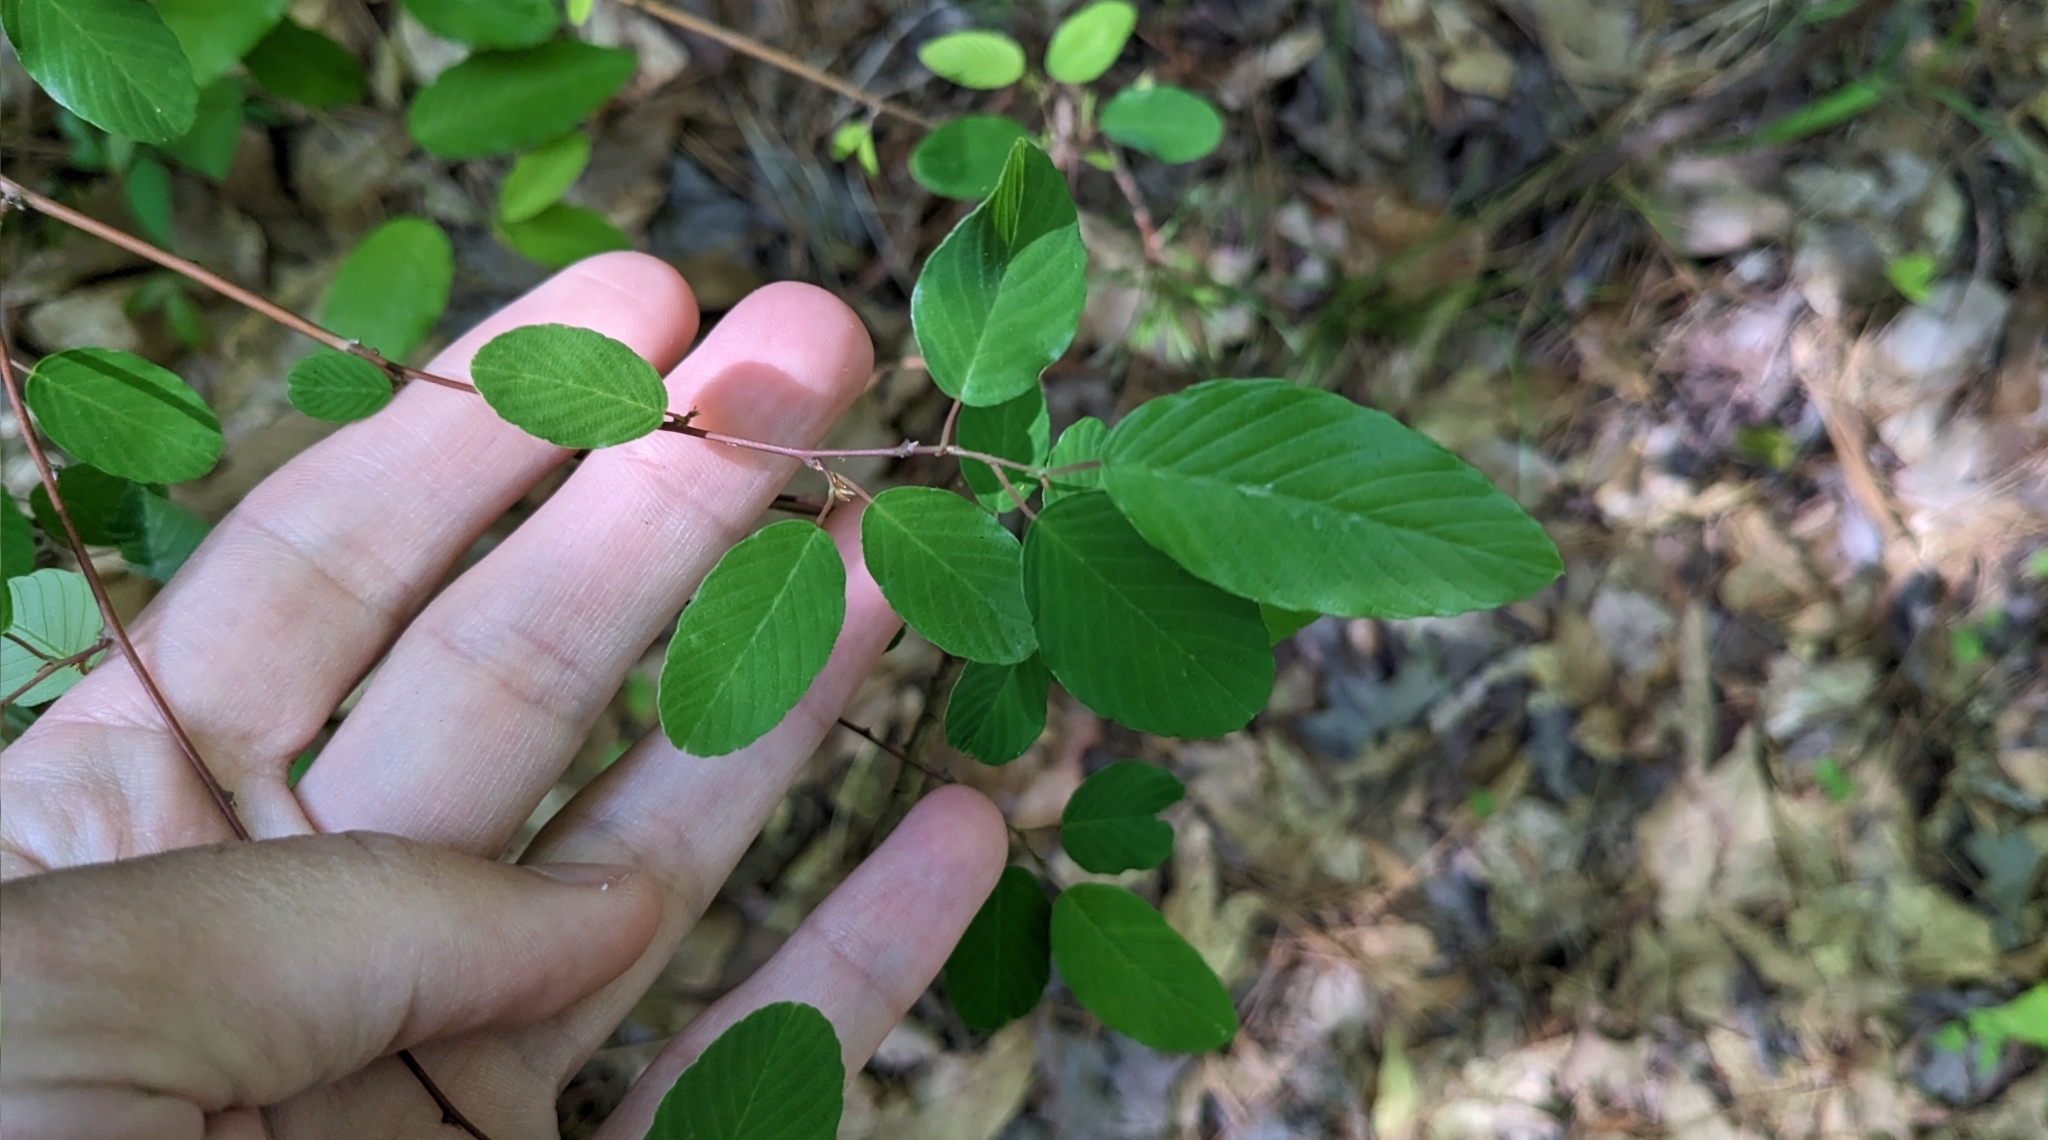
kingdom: Plantae
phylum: Tracheophyta
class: Magnoliopsida
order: Rosales
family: Rhamnaceae
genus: Berchemia
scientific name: Berchemia scandens
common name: Supplejack
